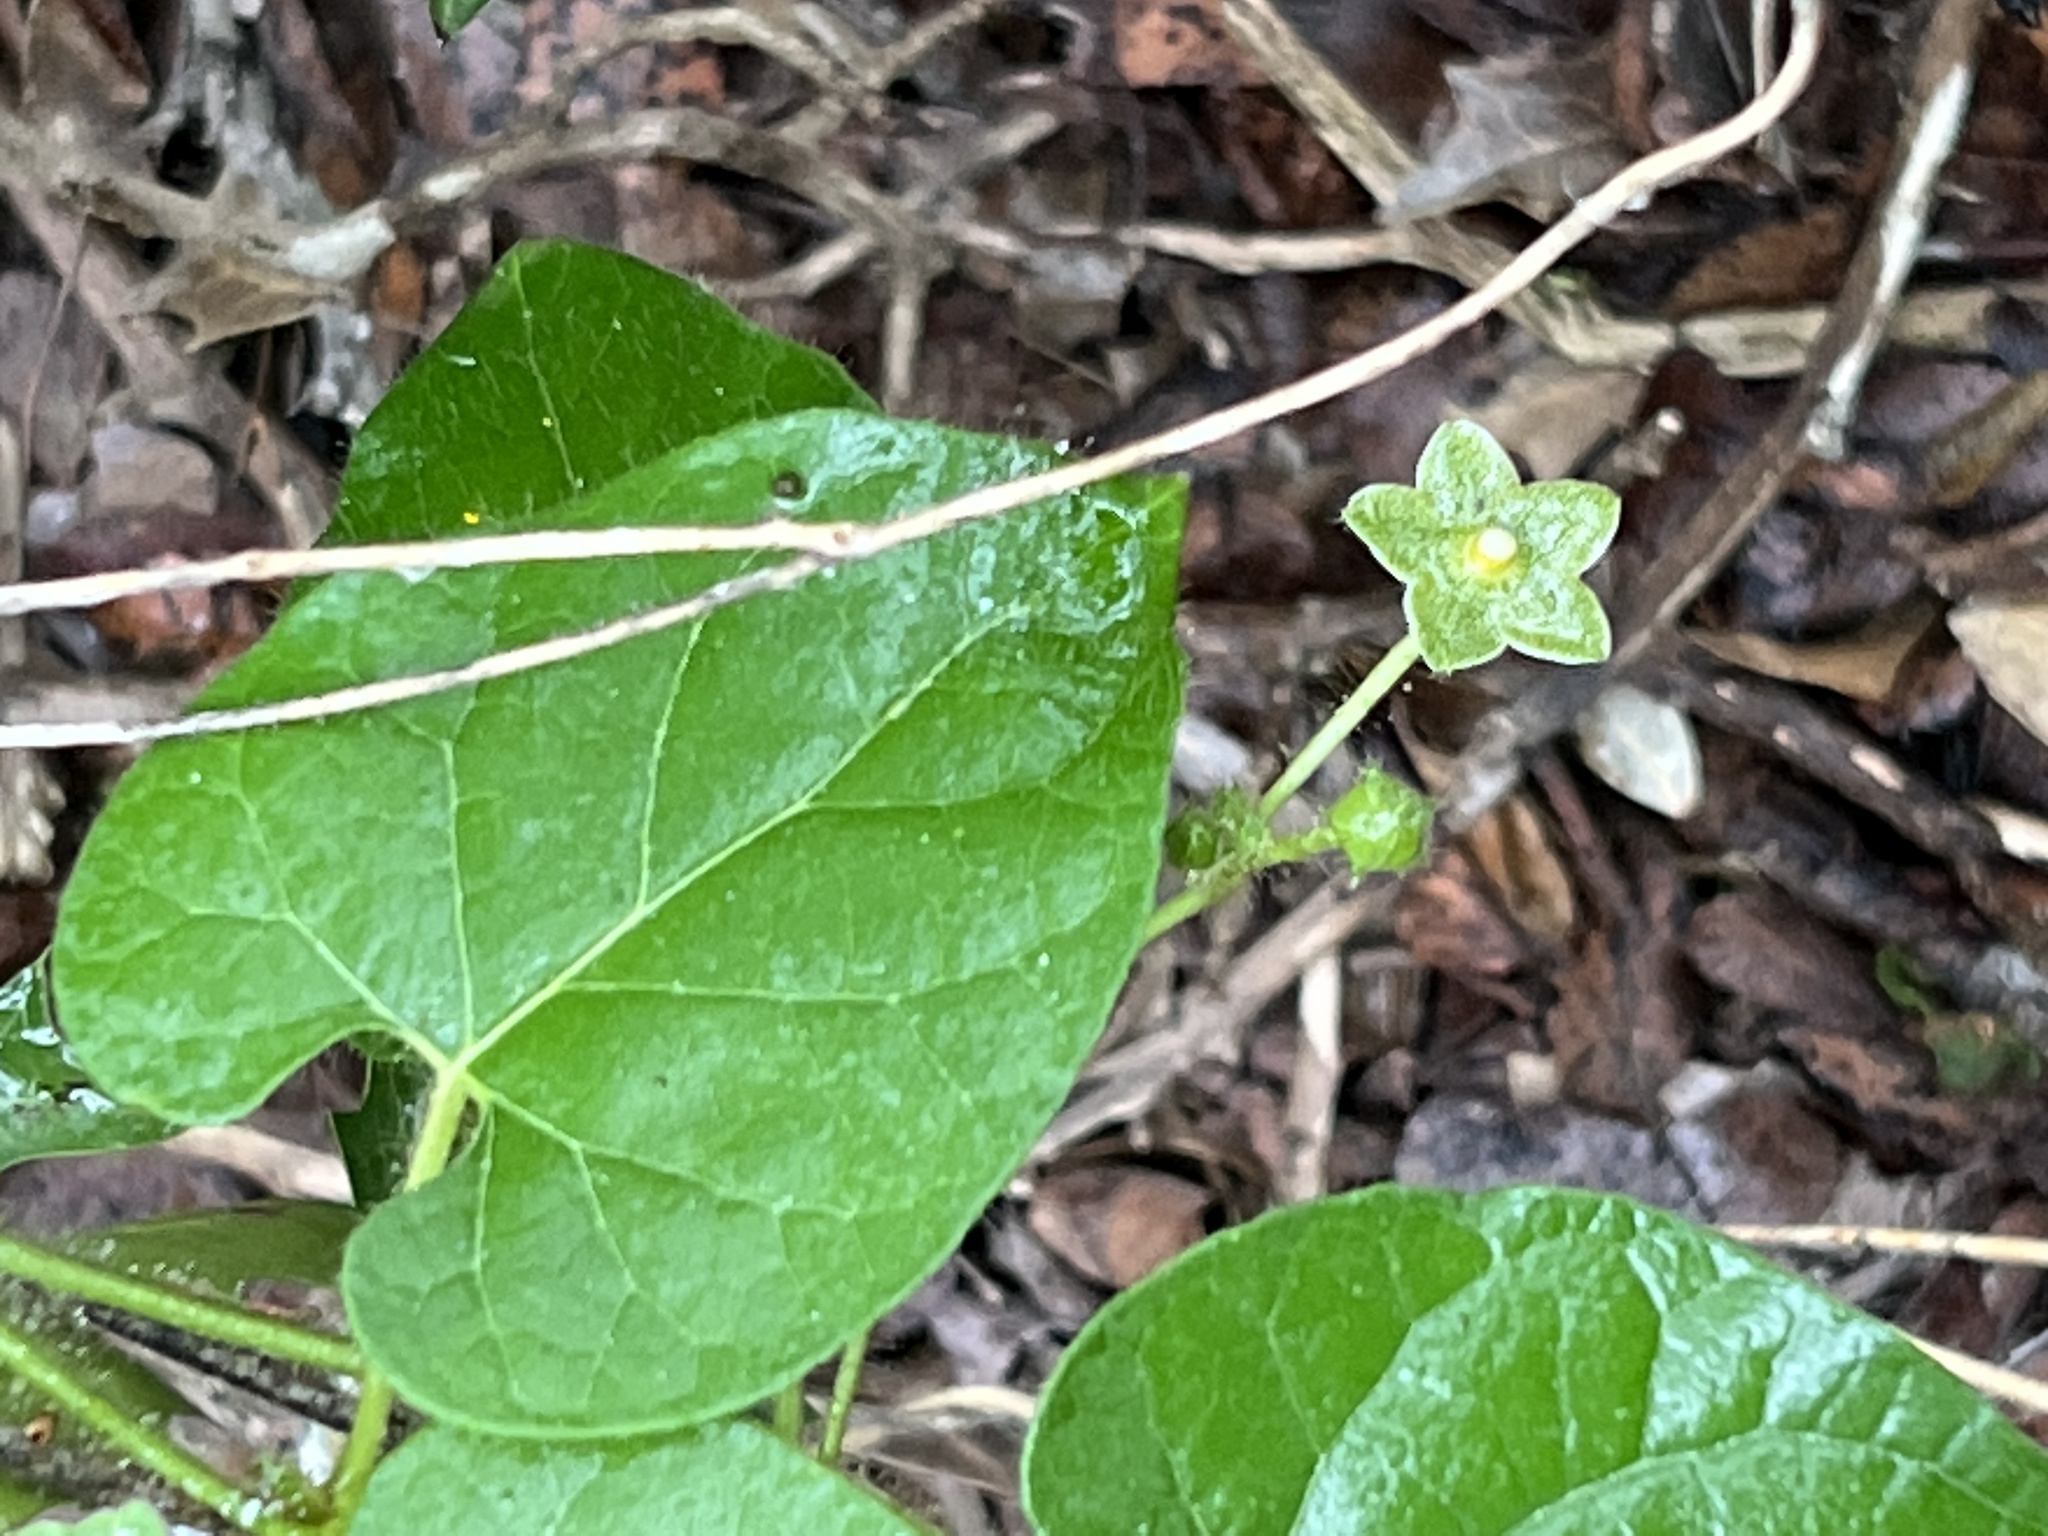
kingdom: Plantae
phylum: Tracheophyta
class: Magnoliopsida
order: Gentianales
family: Apocynaceae
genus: Dictyanthus
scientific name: Dictyanthus reticulatus
